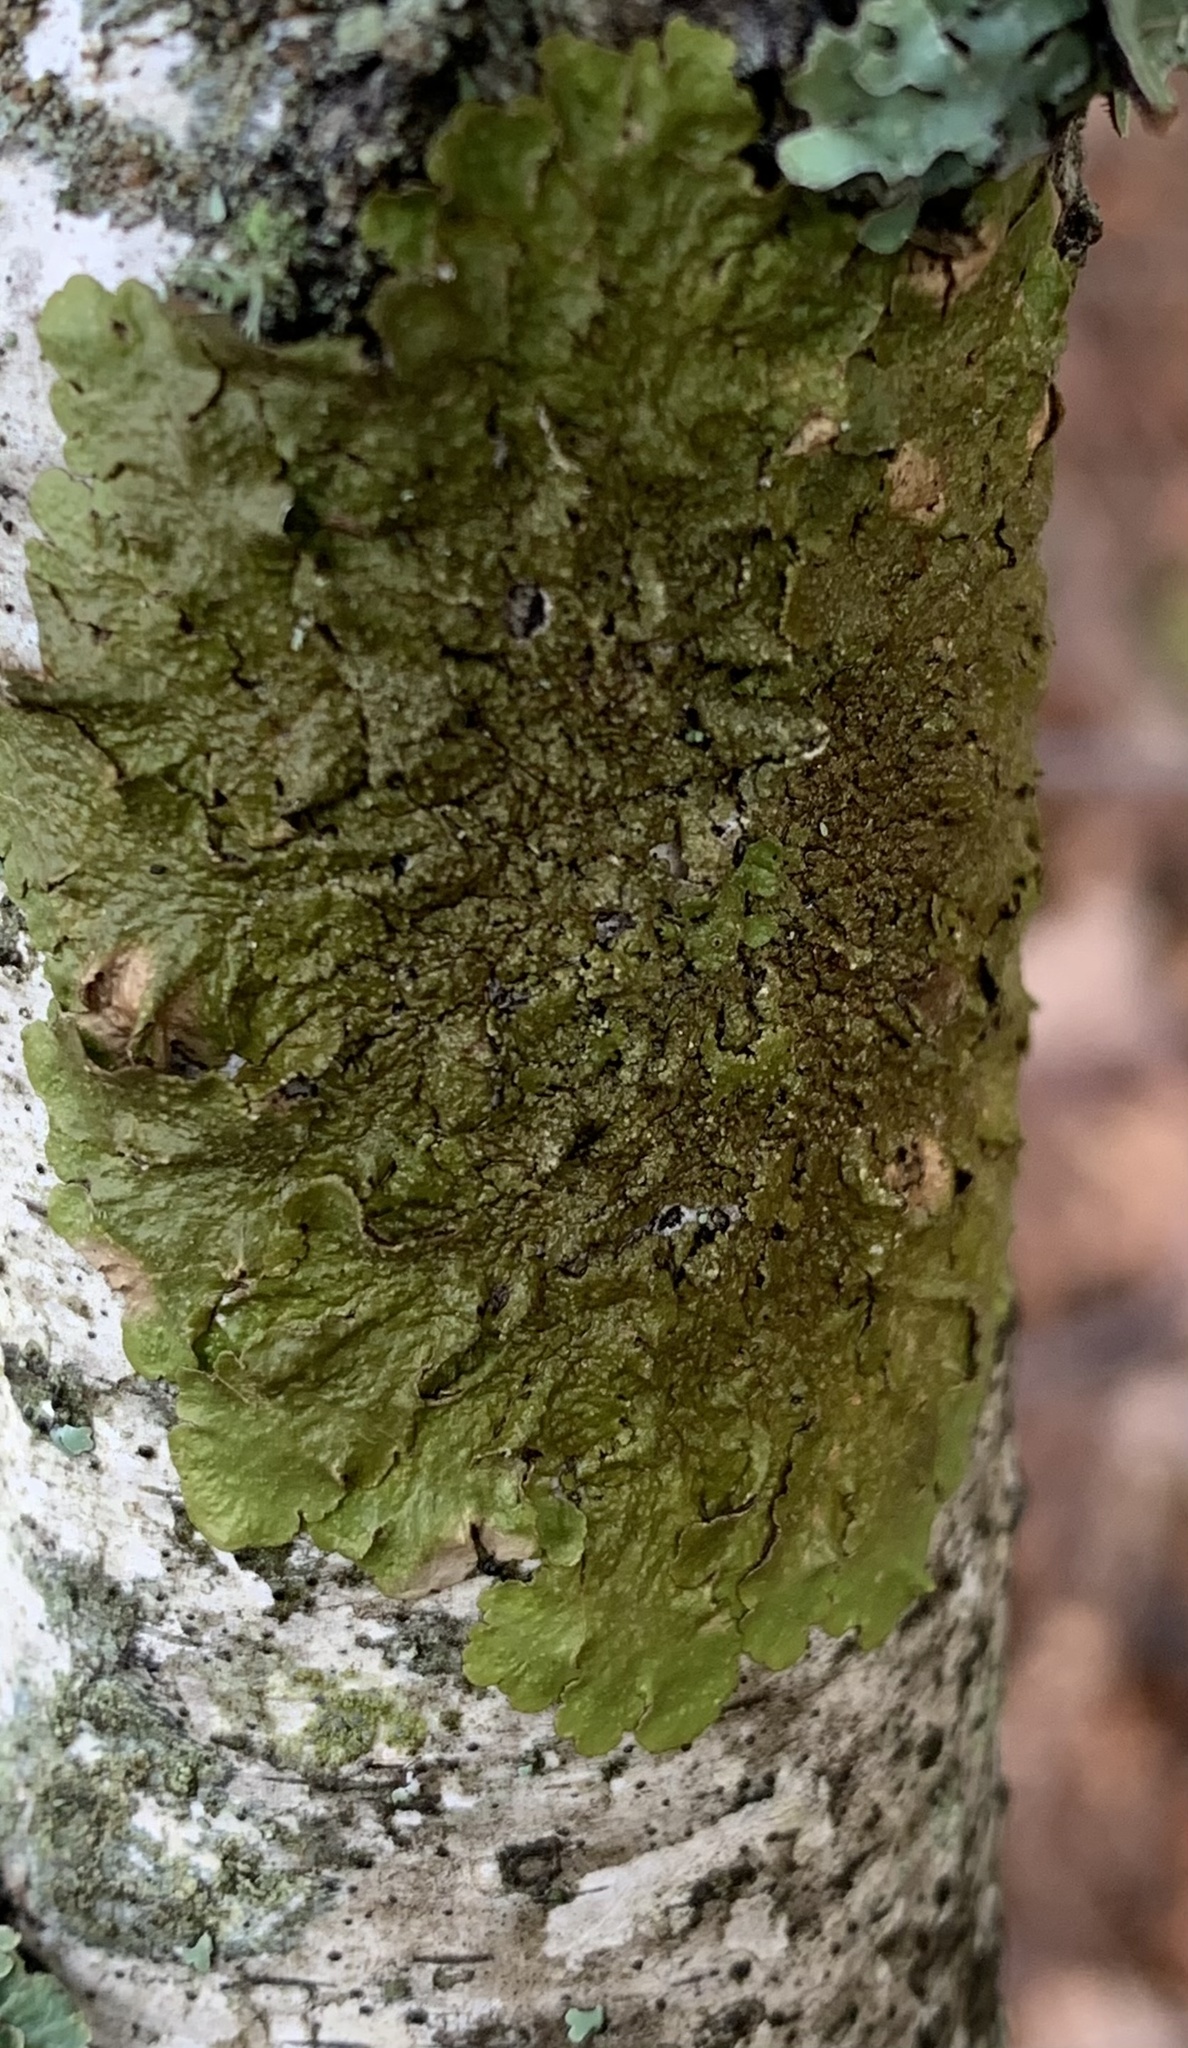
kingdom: Fungi
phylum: Ascomycota
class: Lecanoromycetes
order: Lecanorales
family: Parmeliaceae
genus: Melanelixia
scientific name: Melanelixia subaurifera
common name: Abraded camouflage lichen
